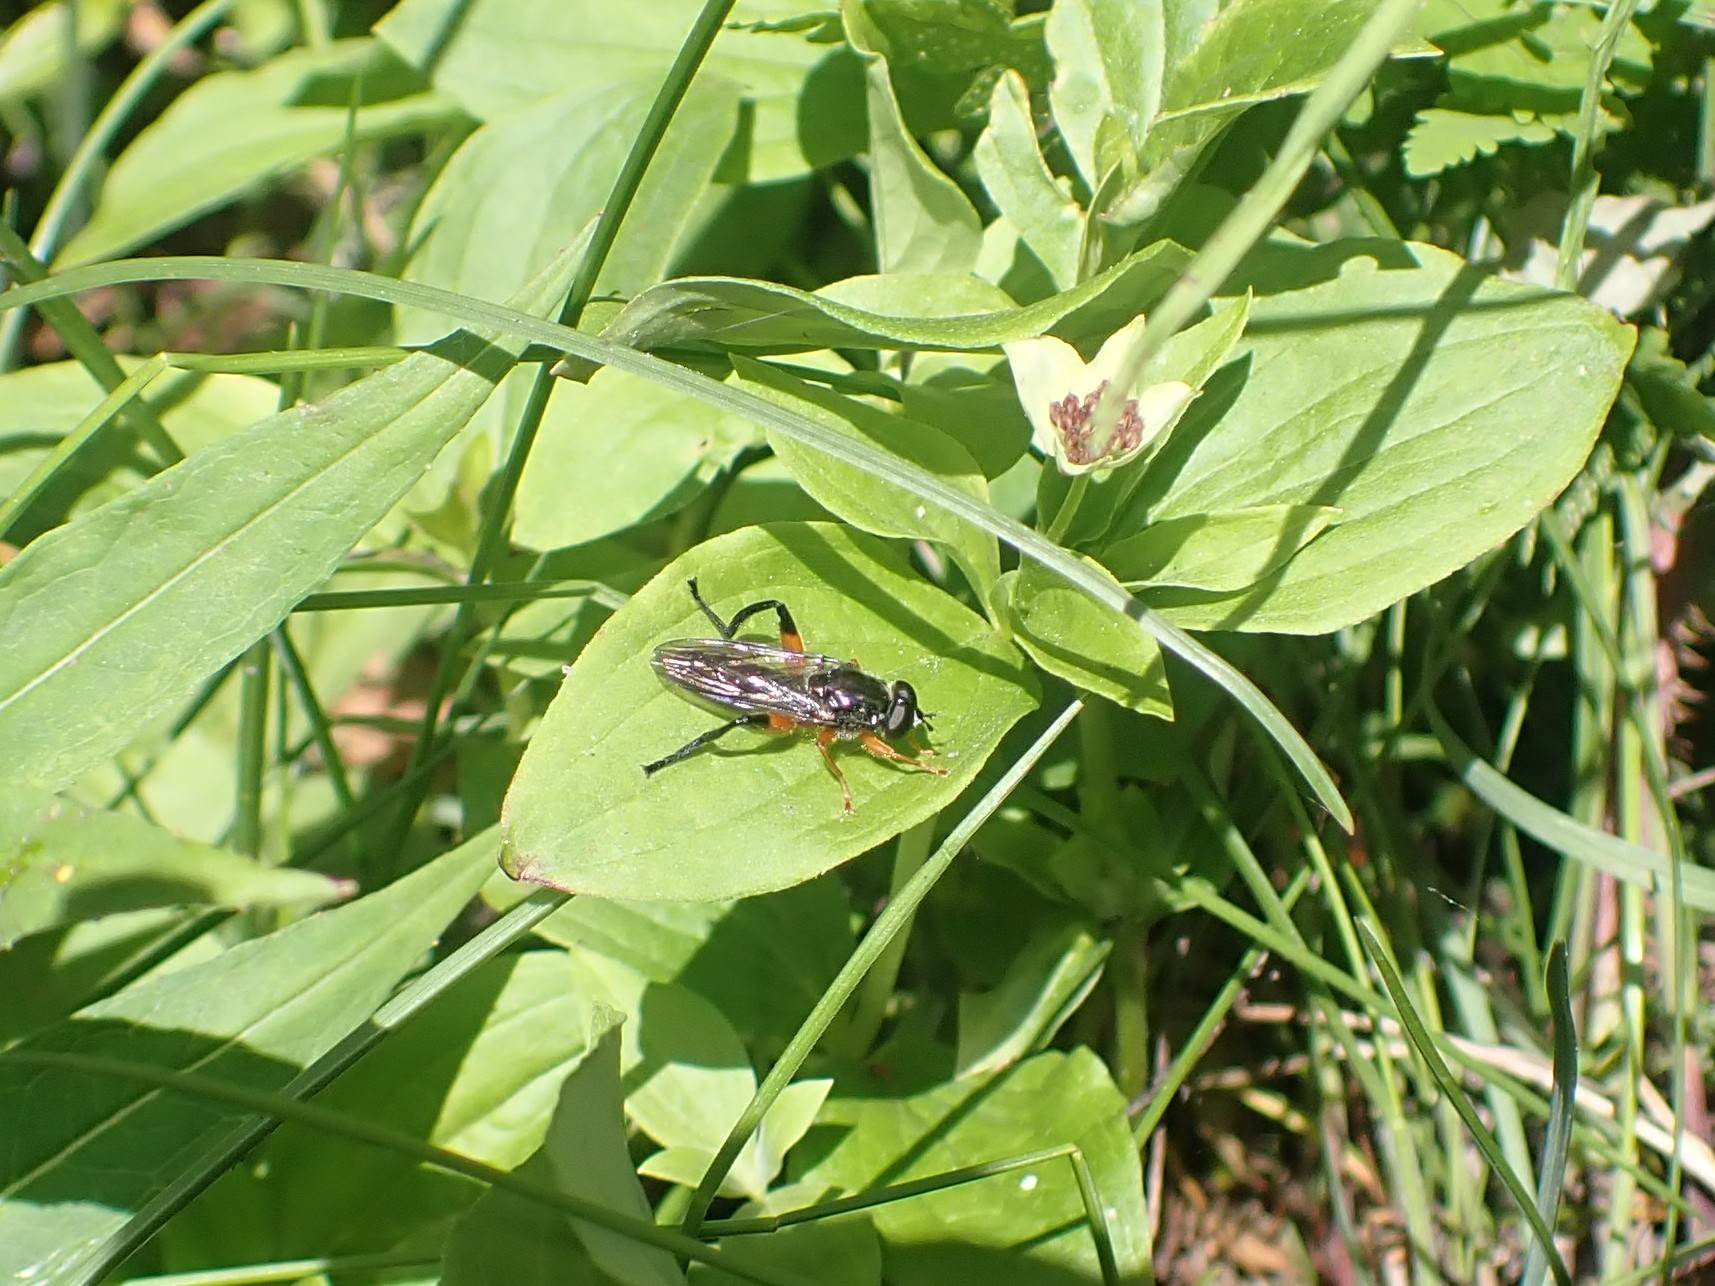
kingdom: Animalia
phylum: Arthropoda
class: Insecta
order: Diptera
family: Syrphidae
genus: Chalcosyrphus
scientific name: Chalcosyrphus vecors
